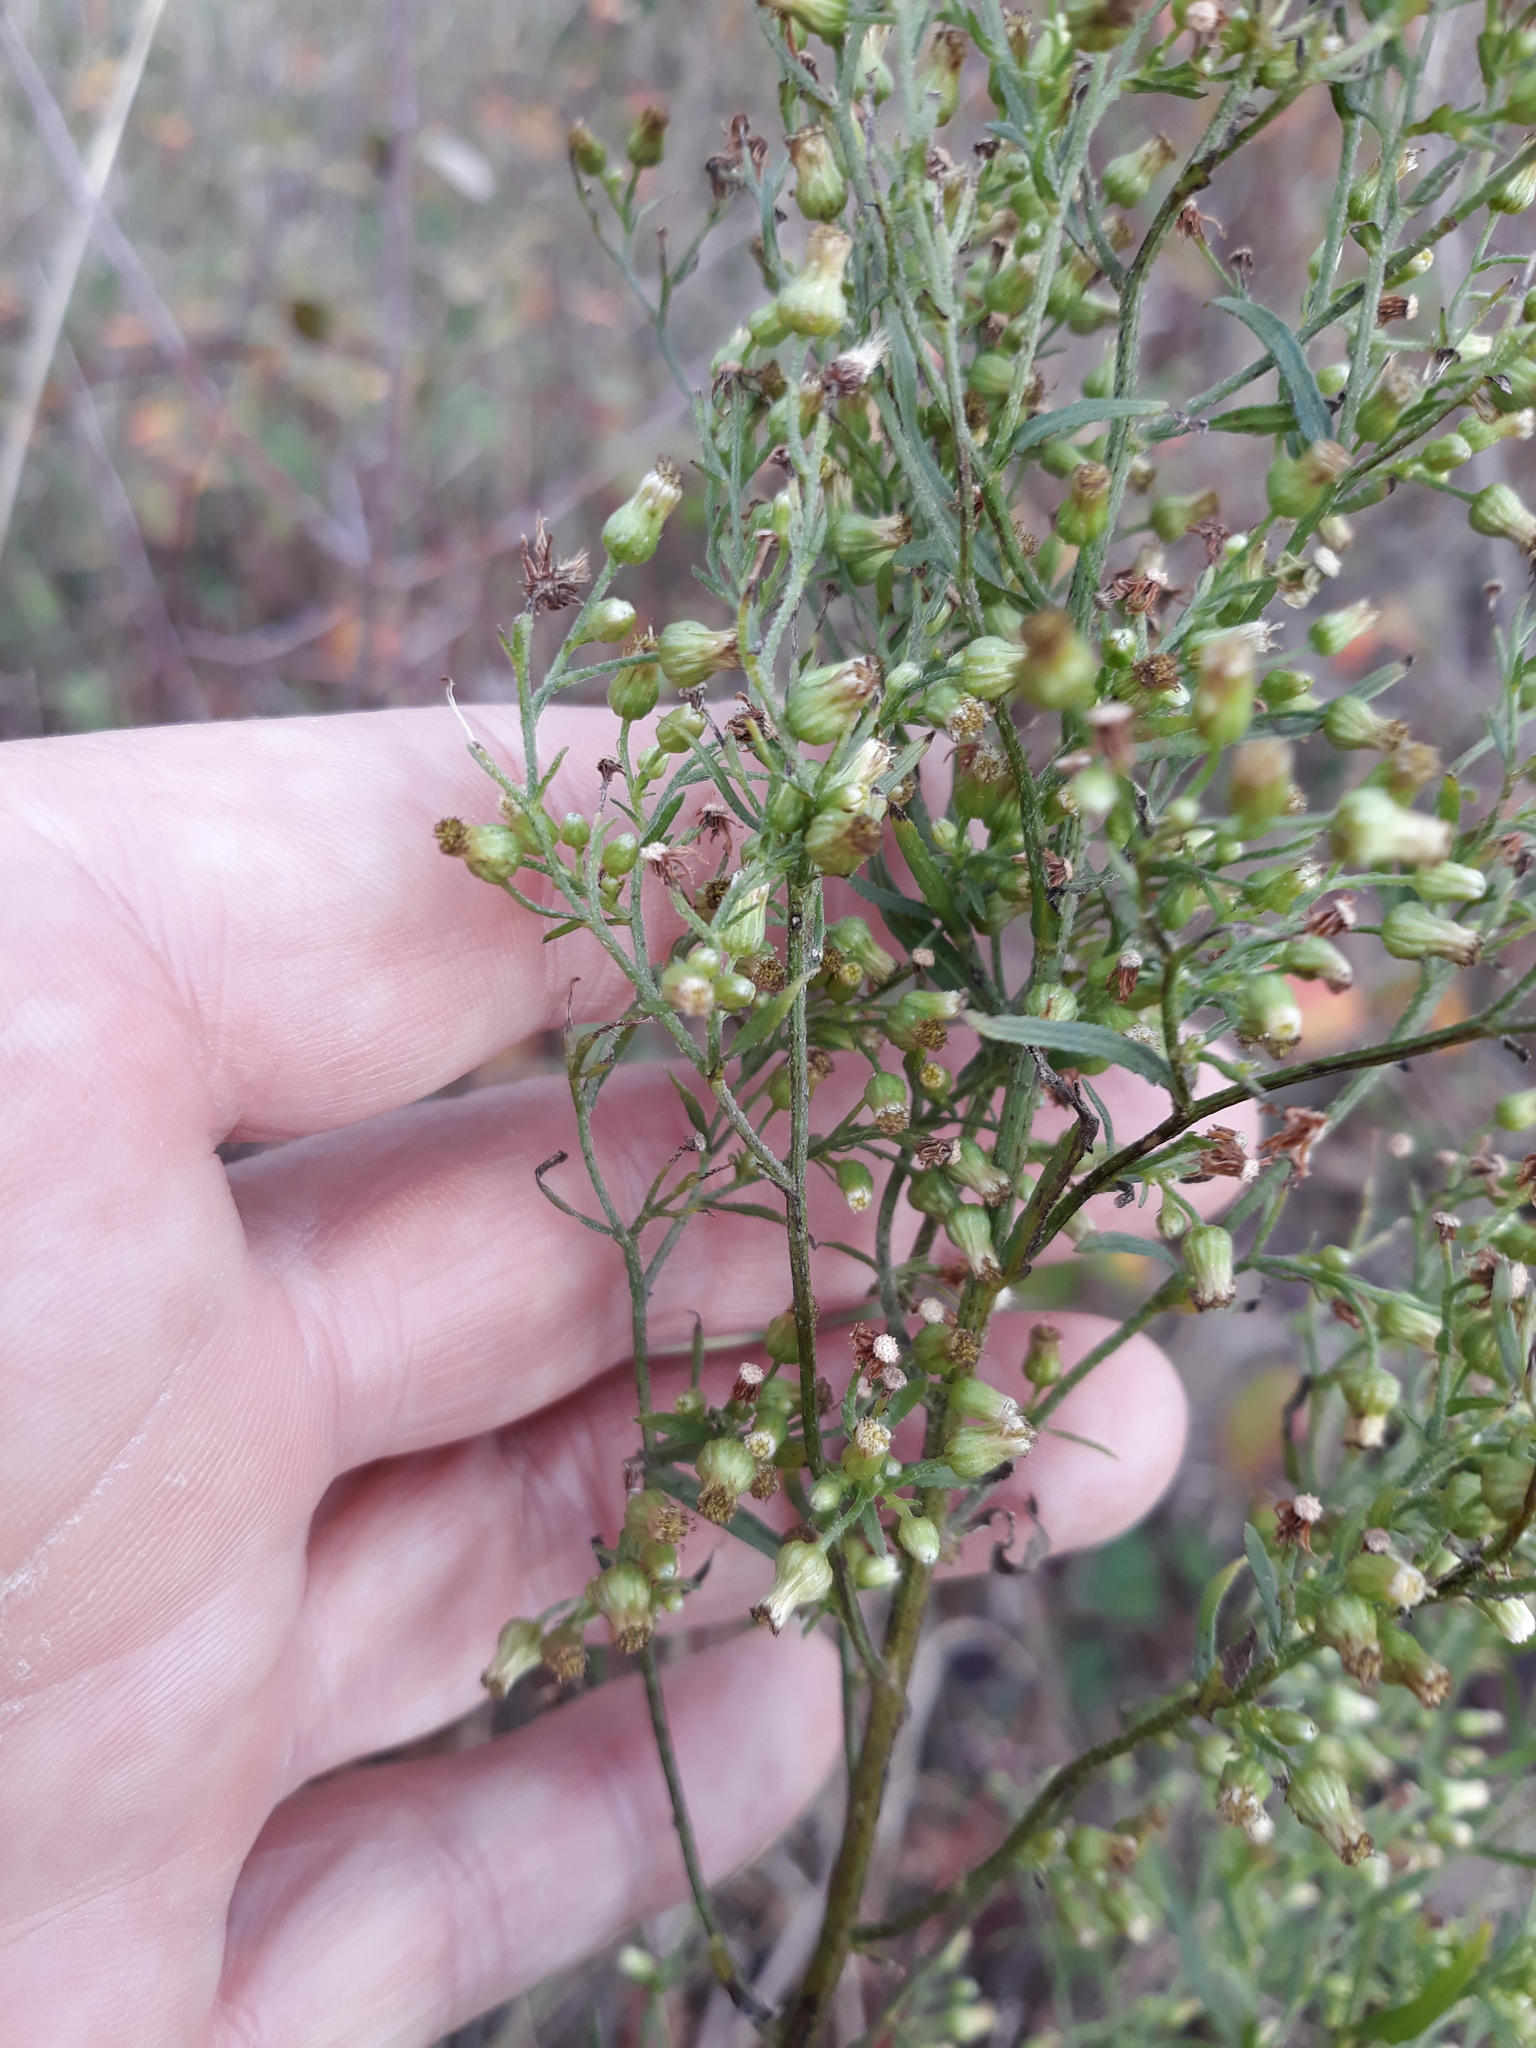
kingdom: Plantae
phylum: Tracheophyta
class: Magnoliopsida
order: Asterales
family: Asteraceae
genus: Erigeron
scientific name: Erigeron canadensis
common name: Canadian fleabane
